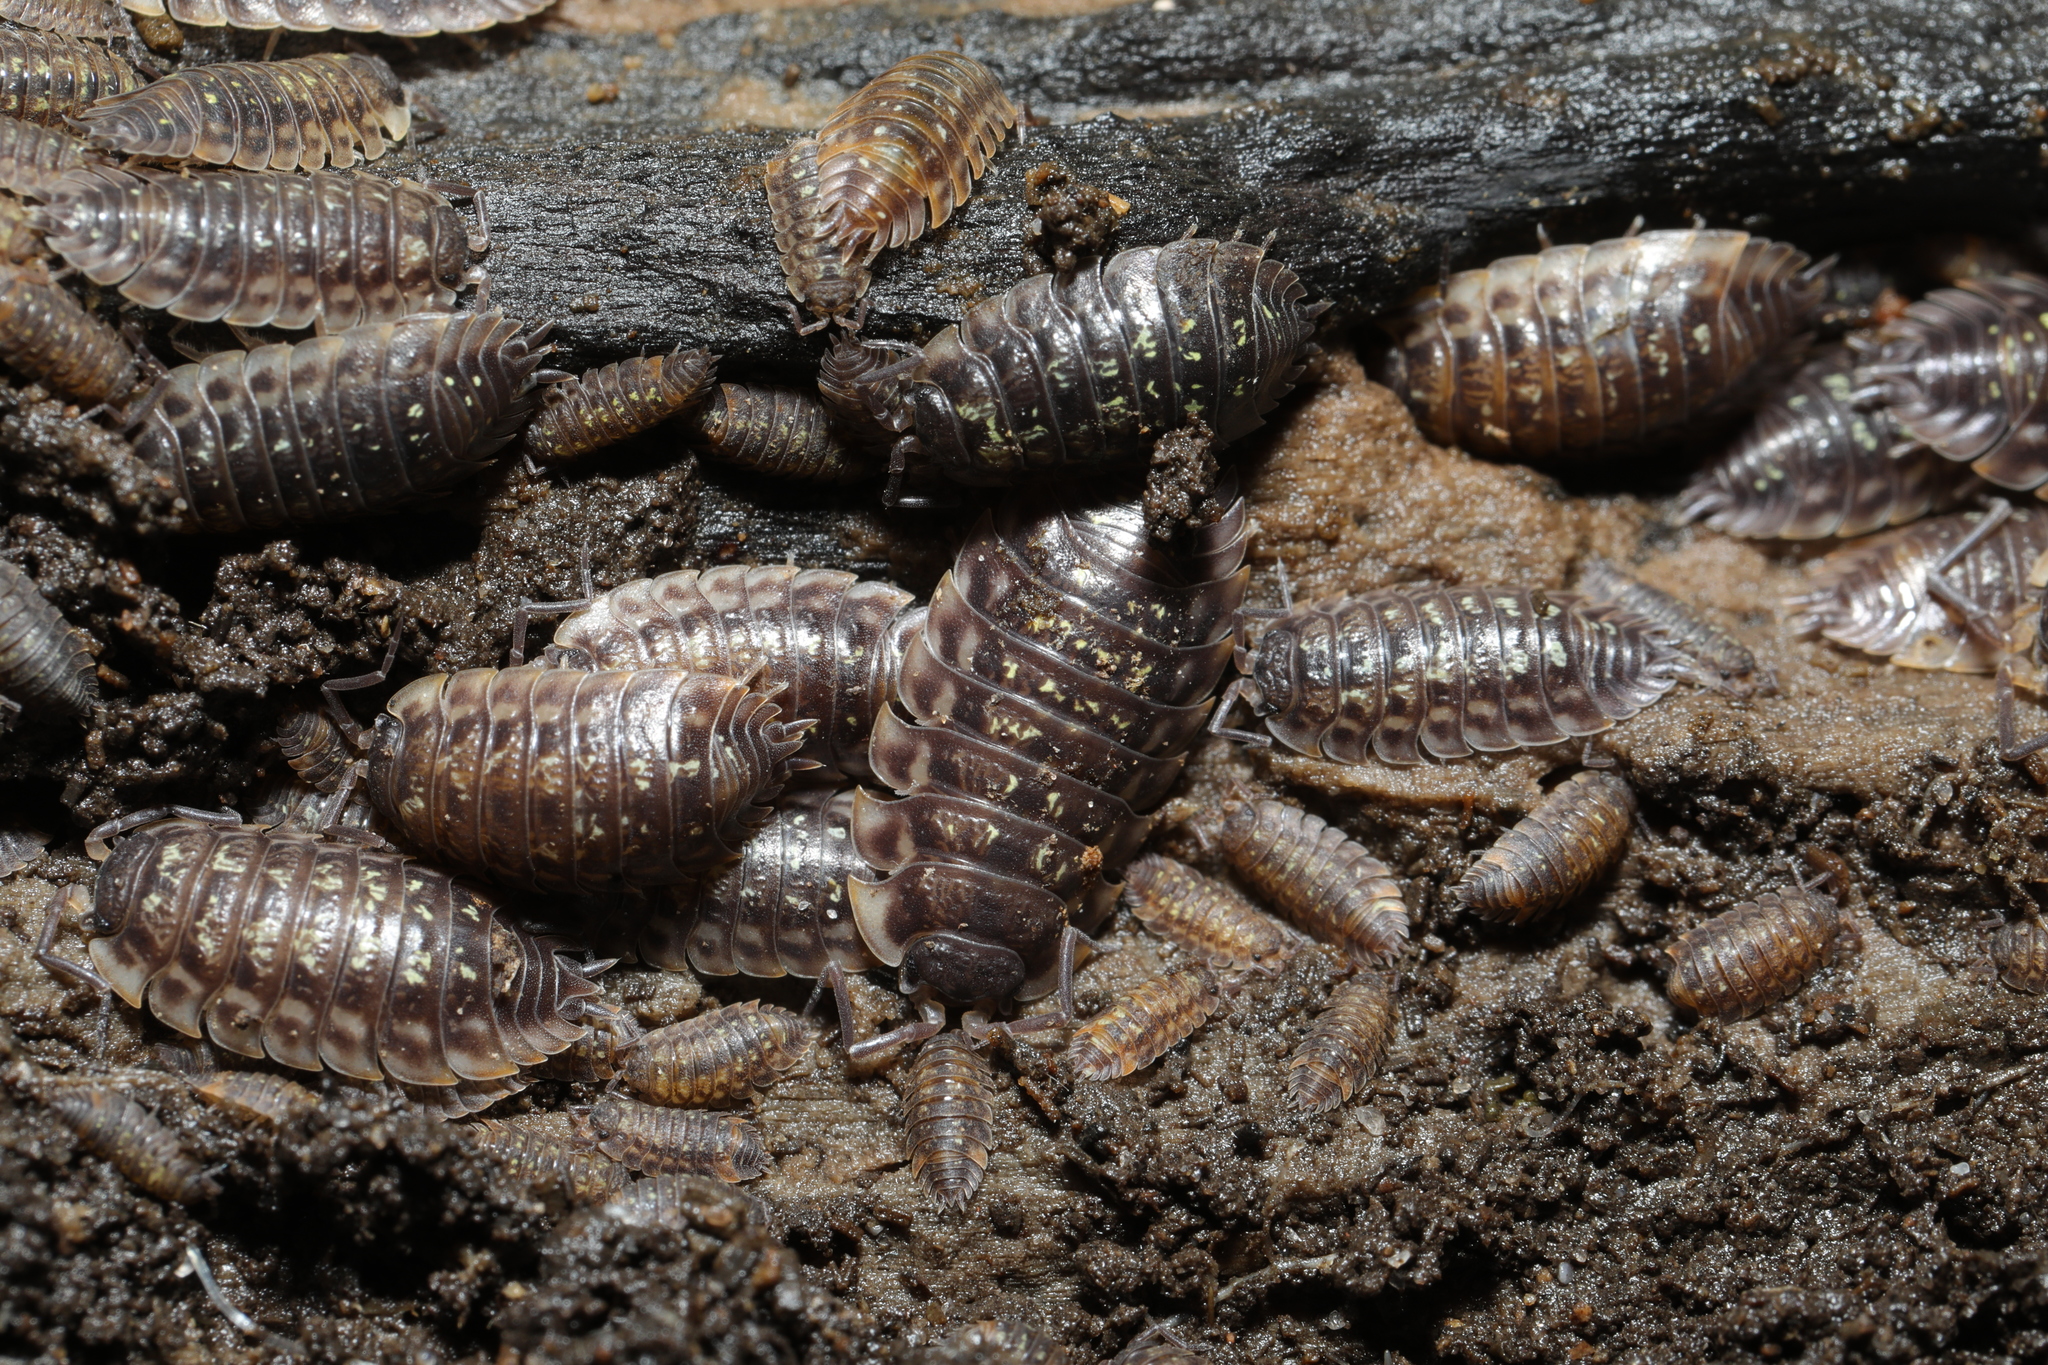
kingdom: Animalia
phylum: Arthropoda
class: Malacostraca
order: Isopoda
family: Oniscidae
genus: Oniscus
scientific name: Oniscus asellus
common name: Common shiny woodlouse
